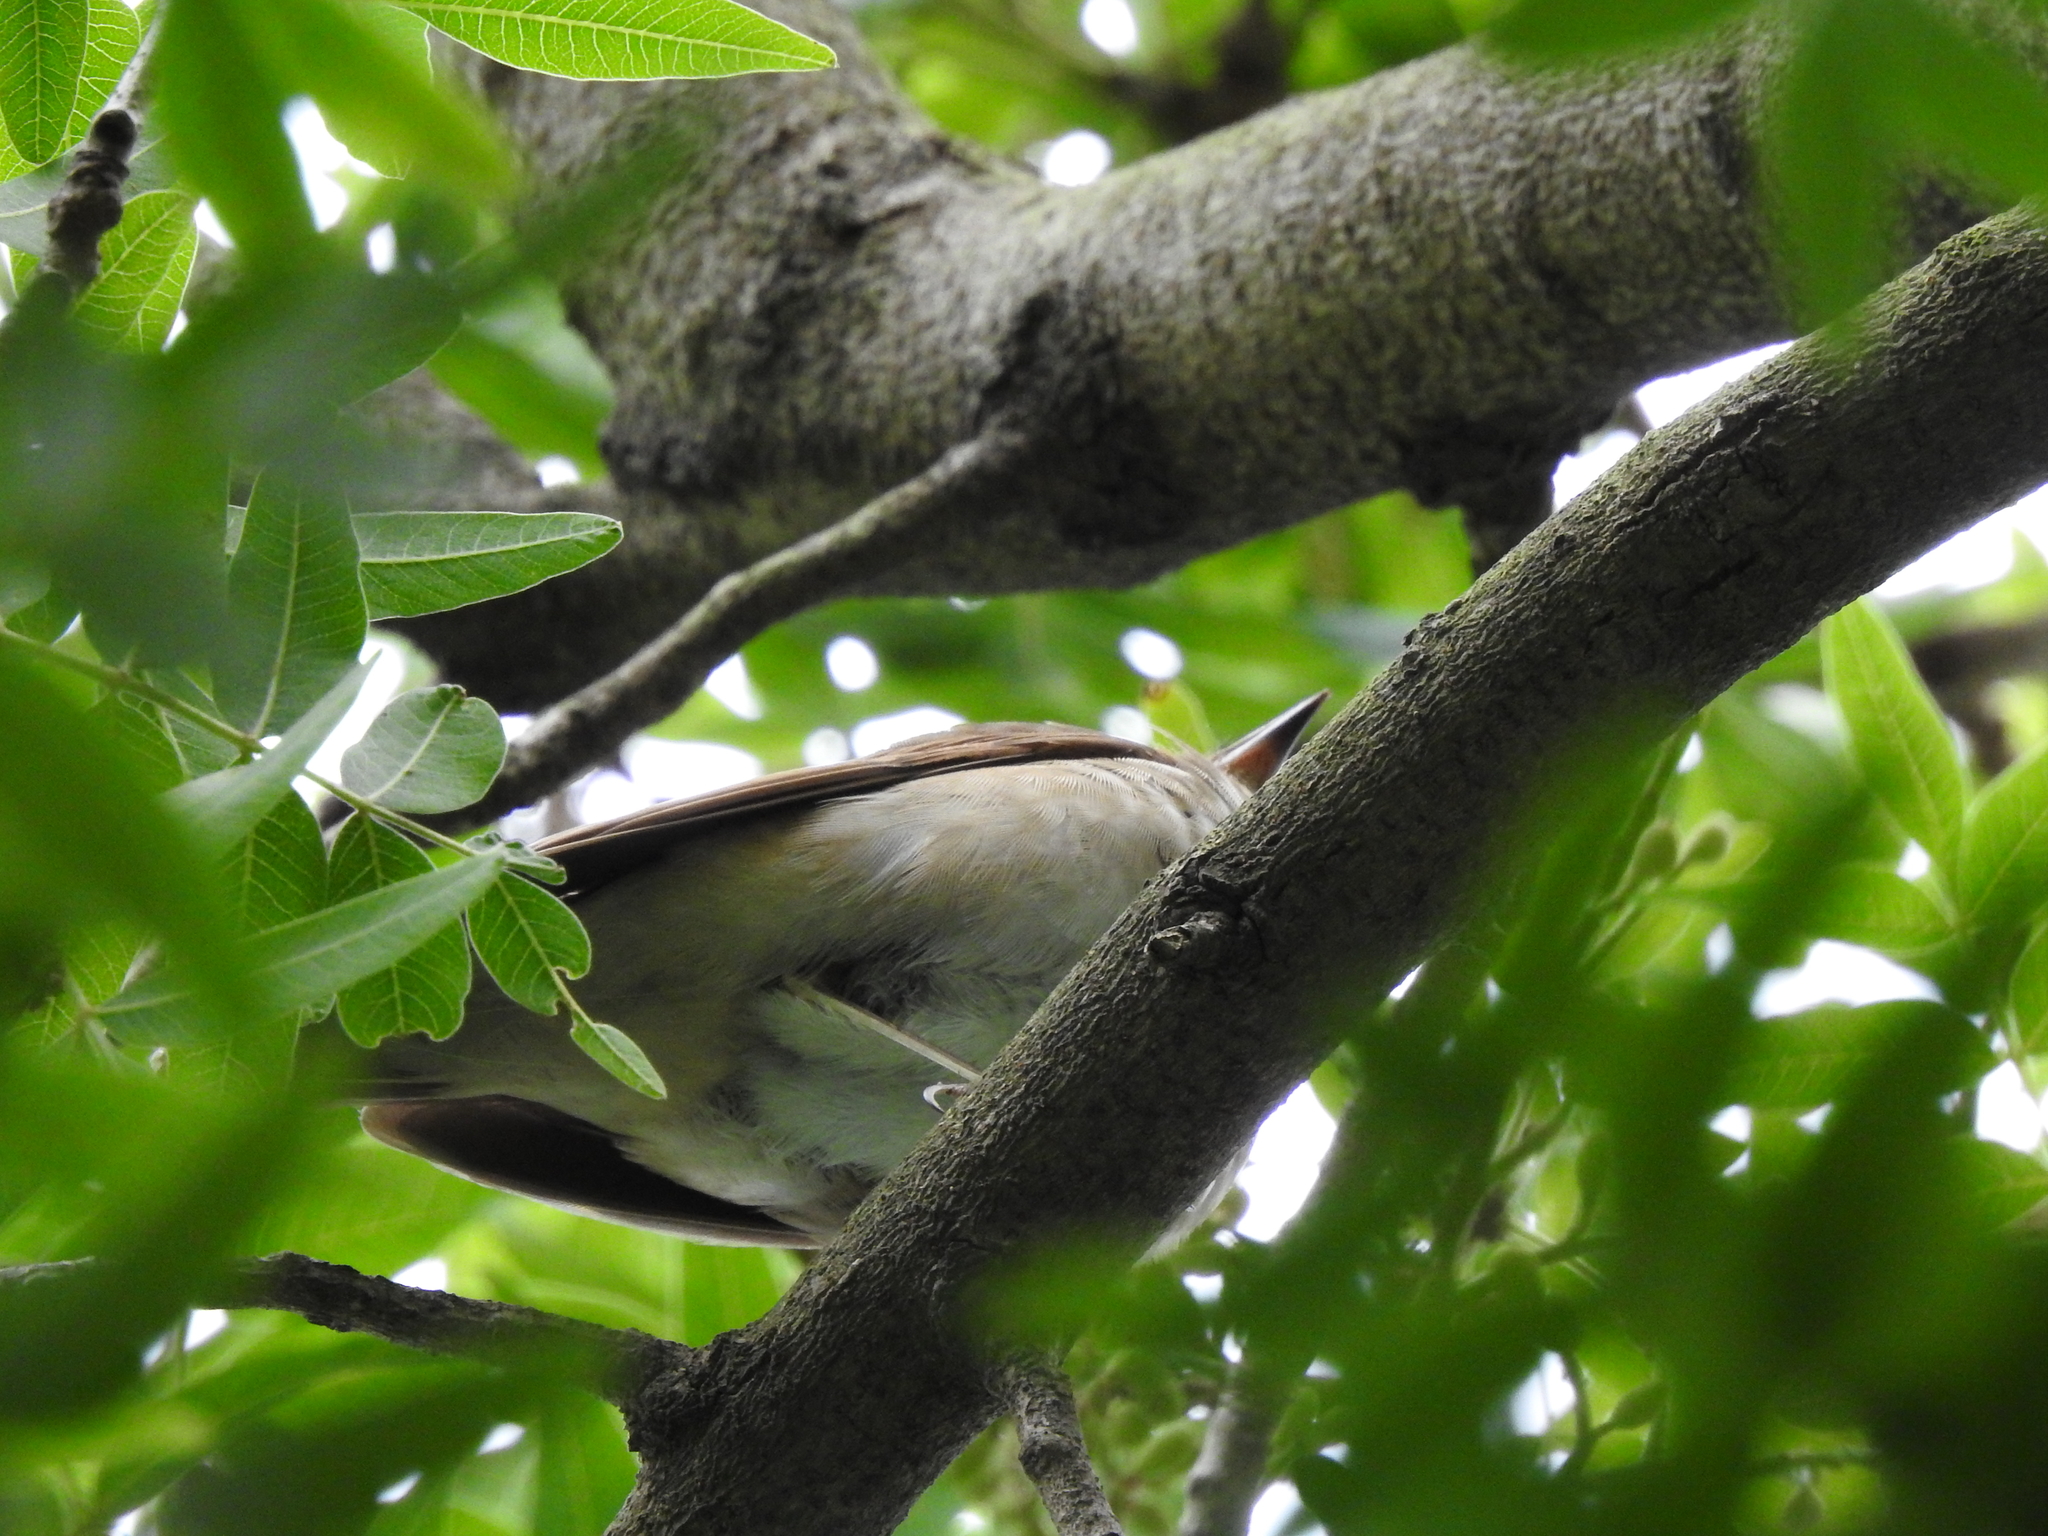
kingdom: Animalia
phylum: Chordata
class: Aves
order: Passeriformes
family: Turdidae
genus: Catharus
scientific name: Catharus ustulatus
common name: Swainson's thrush
